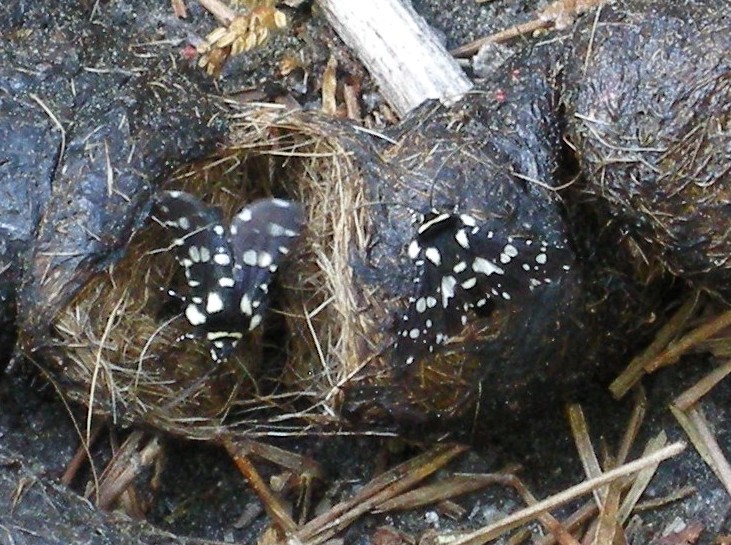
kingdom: Animalia
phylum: Arthropoda
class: Insecta
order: Lepidoptera
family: Thyrididae
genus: Pseudothyris
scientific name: Pseudothyris sepulchralis
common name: Mournful thyris moth
